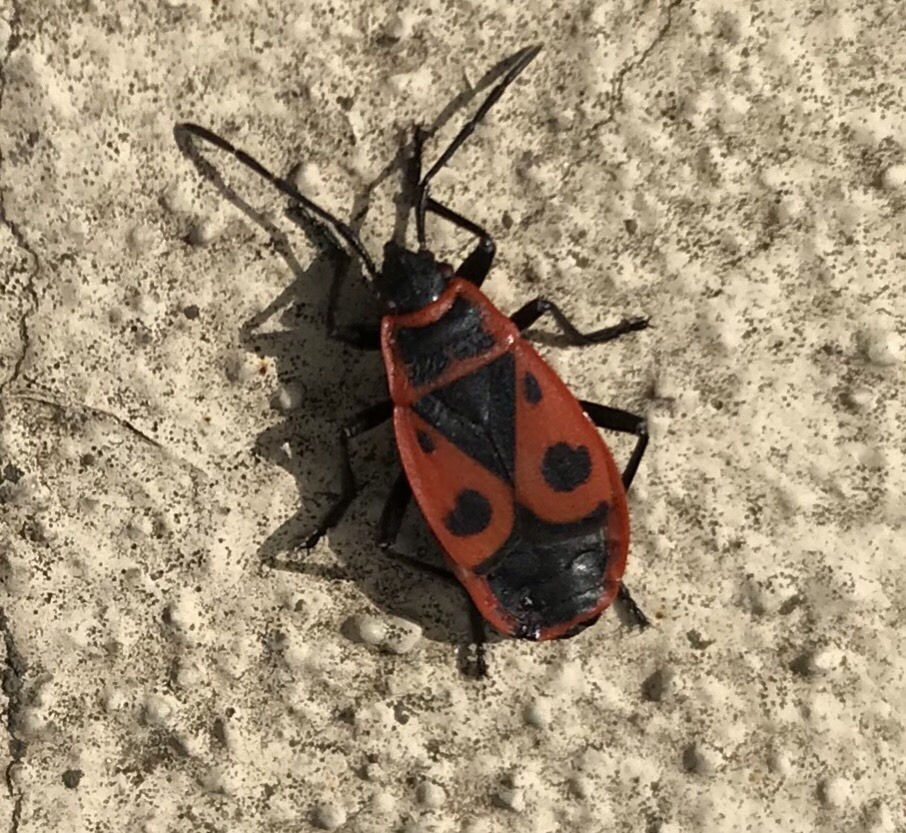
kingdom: Animalia
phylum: Arthropoda
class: Insecta
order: Hemiptera
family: Pyrrhocoridae
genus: Pyrrhocoris
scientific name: Pyrrhocoris apterus
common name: Firebug
